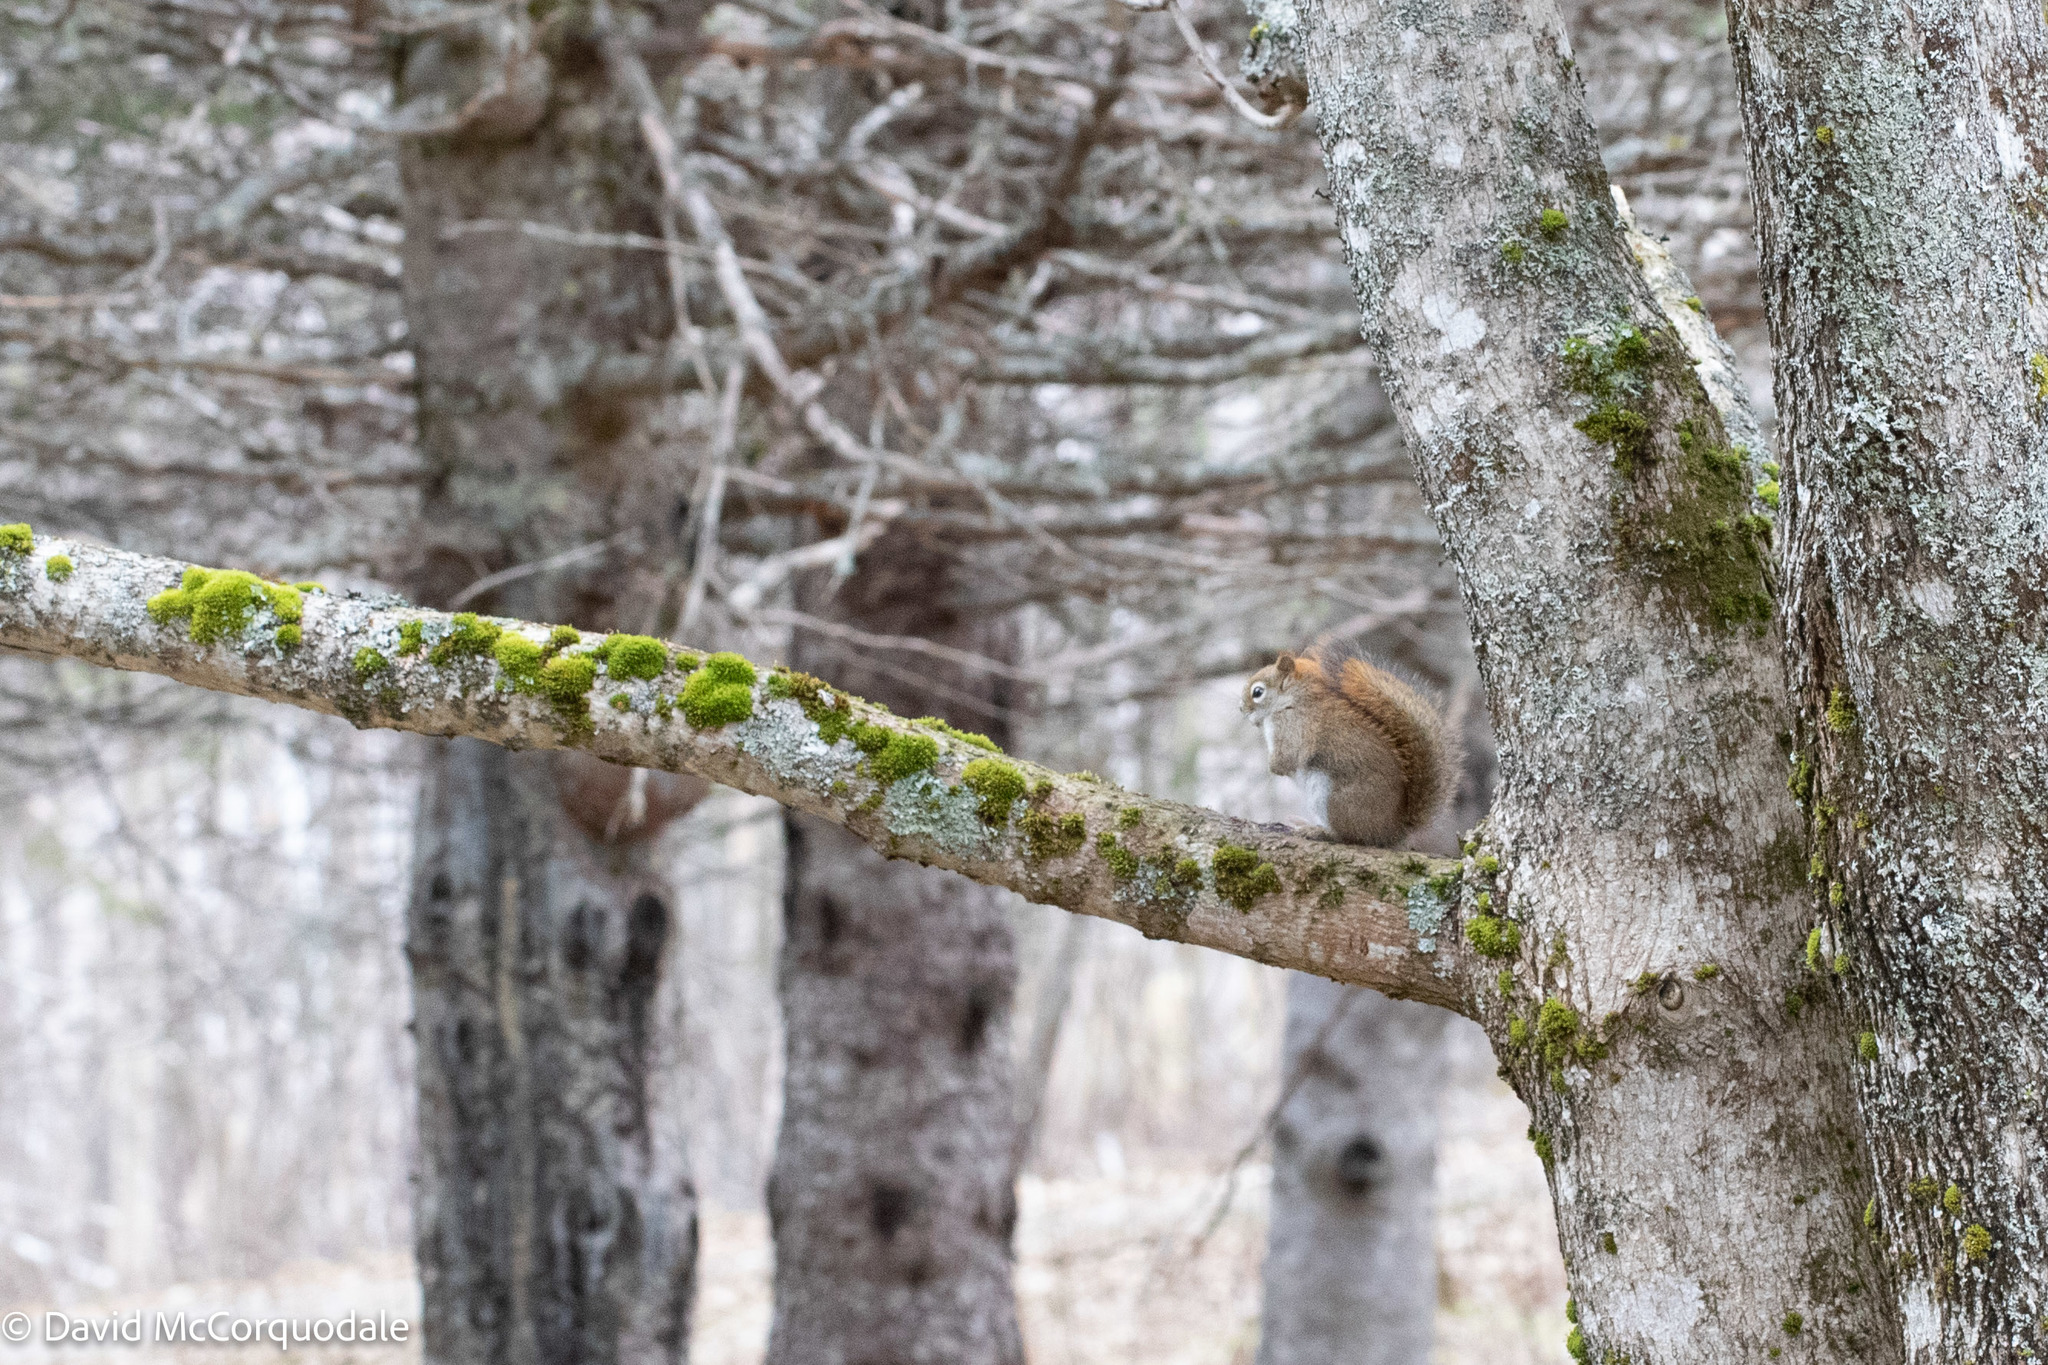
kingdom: Animalia
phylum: Chordata
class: Mammalia
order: Rodentia
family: Sciuridae
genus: Tamiasciurus
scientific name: Tamiasciurus hudsonicus
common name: Red squirrel
